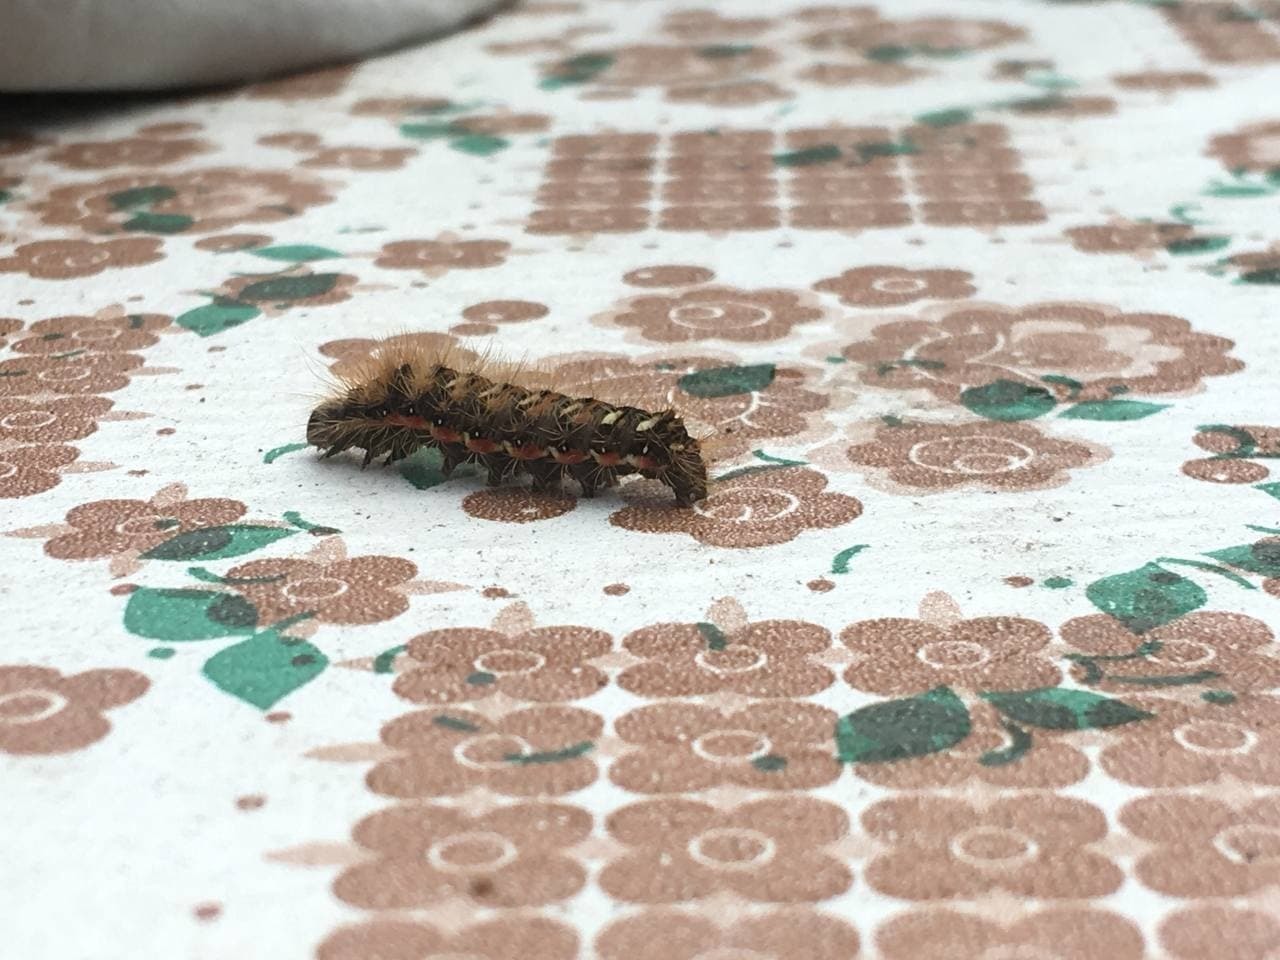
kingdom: Animalia
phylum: Arthropoda
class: Insecta
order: Lepidoptera
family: Noctuidae
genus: Acronicta
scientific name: Acronicta rumicis
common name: Knot grass
